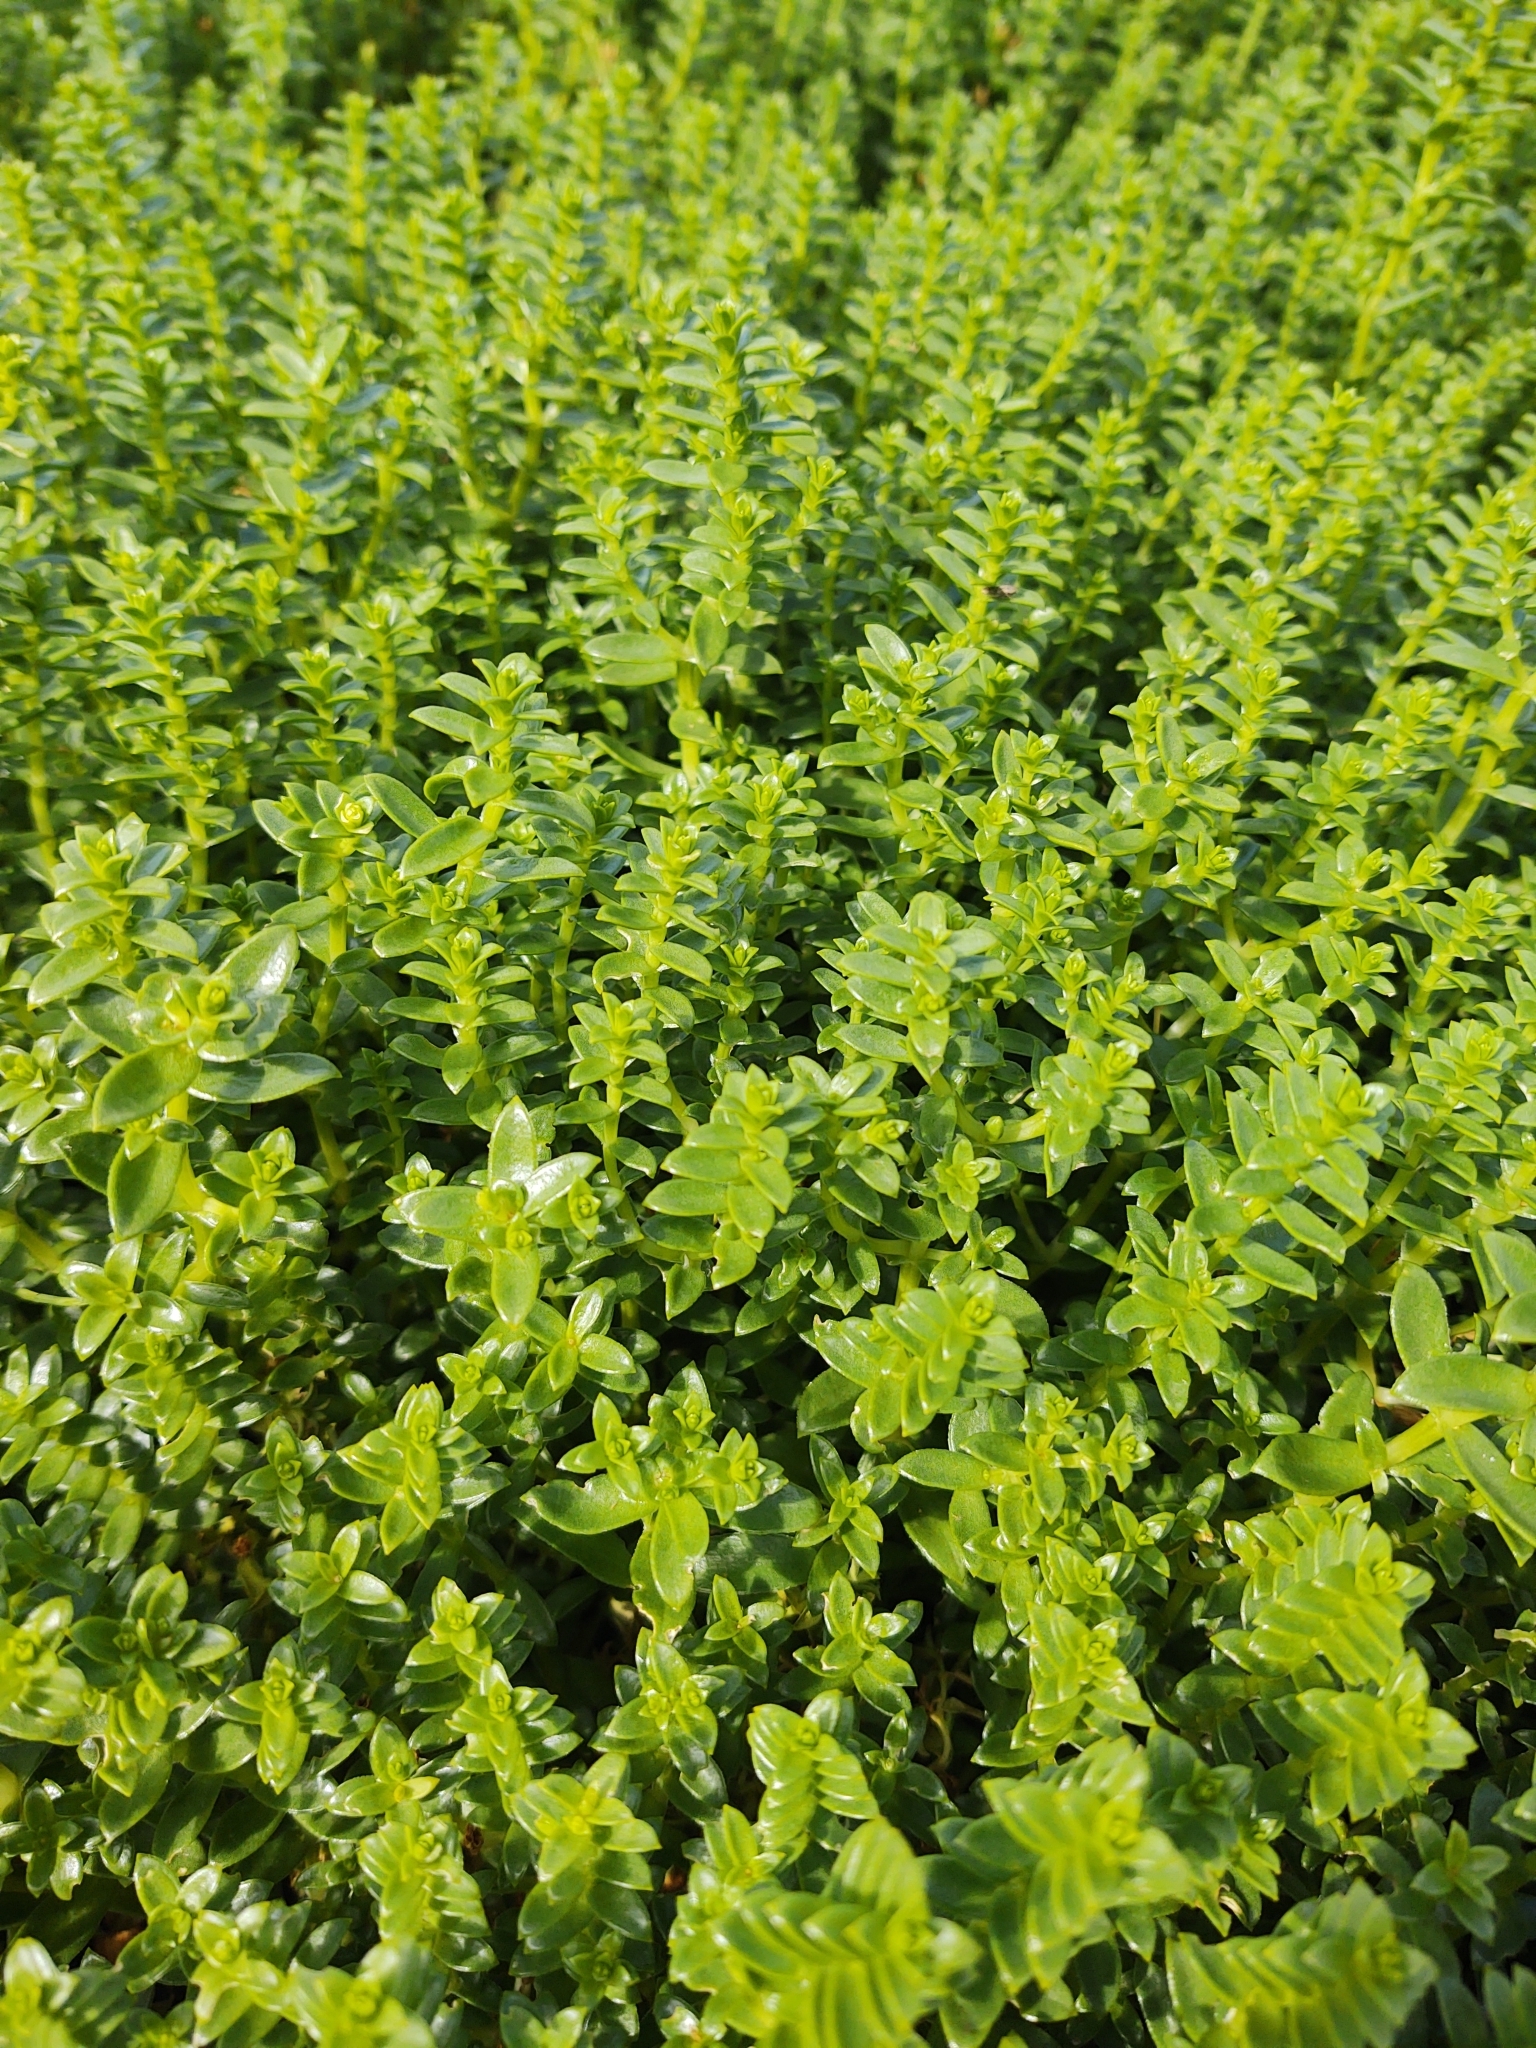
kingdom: Plantae
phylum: Tracheophyta
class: Magnoliopsida
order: Caryophyllales
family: Caryophyllaceae
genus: Honckenya
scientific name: Honckenya peploides
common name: Sea sandwort
